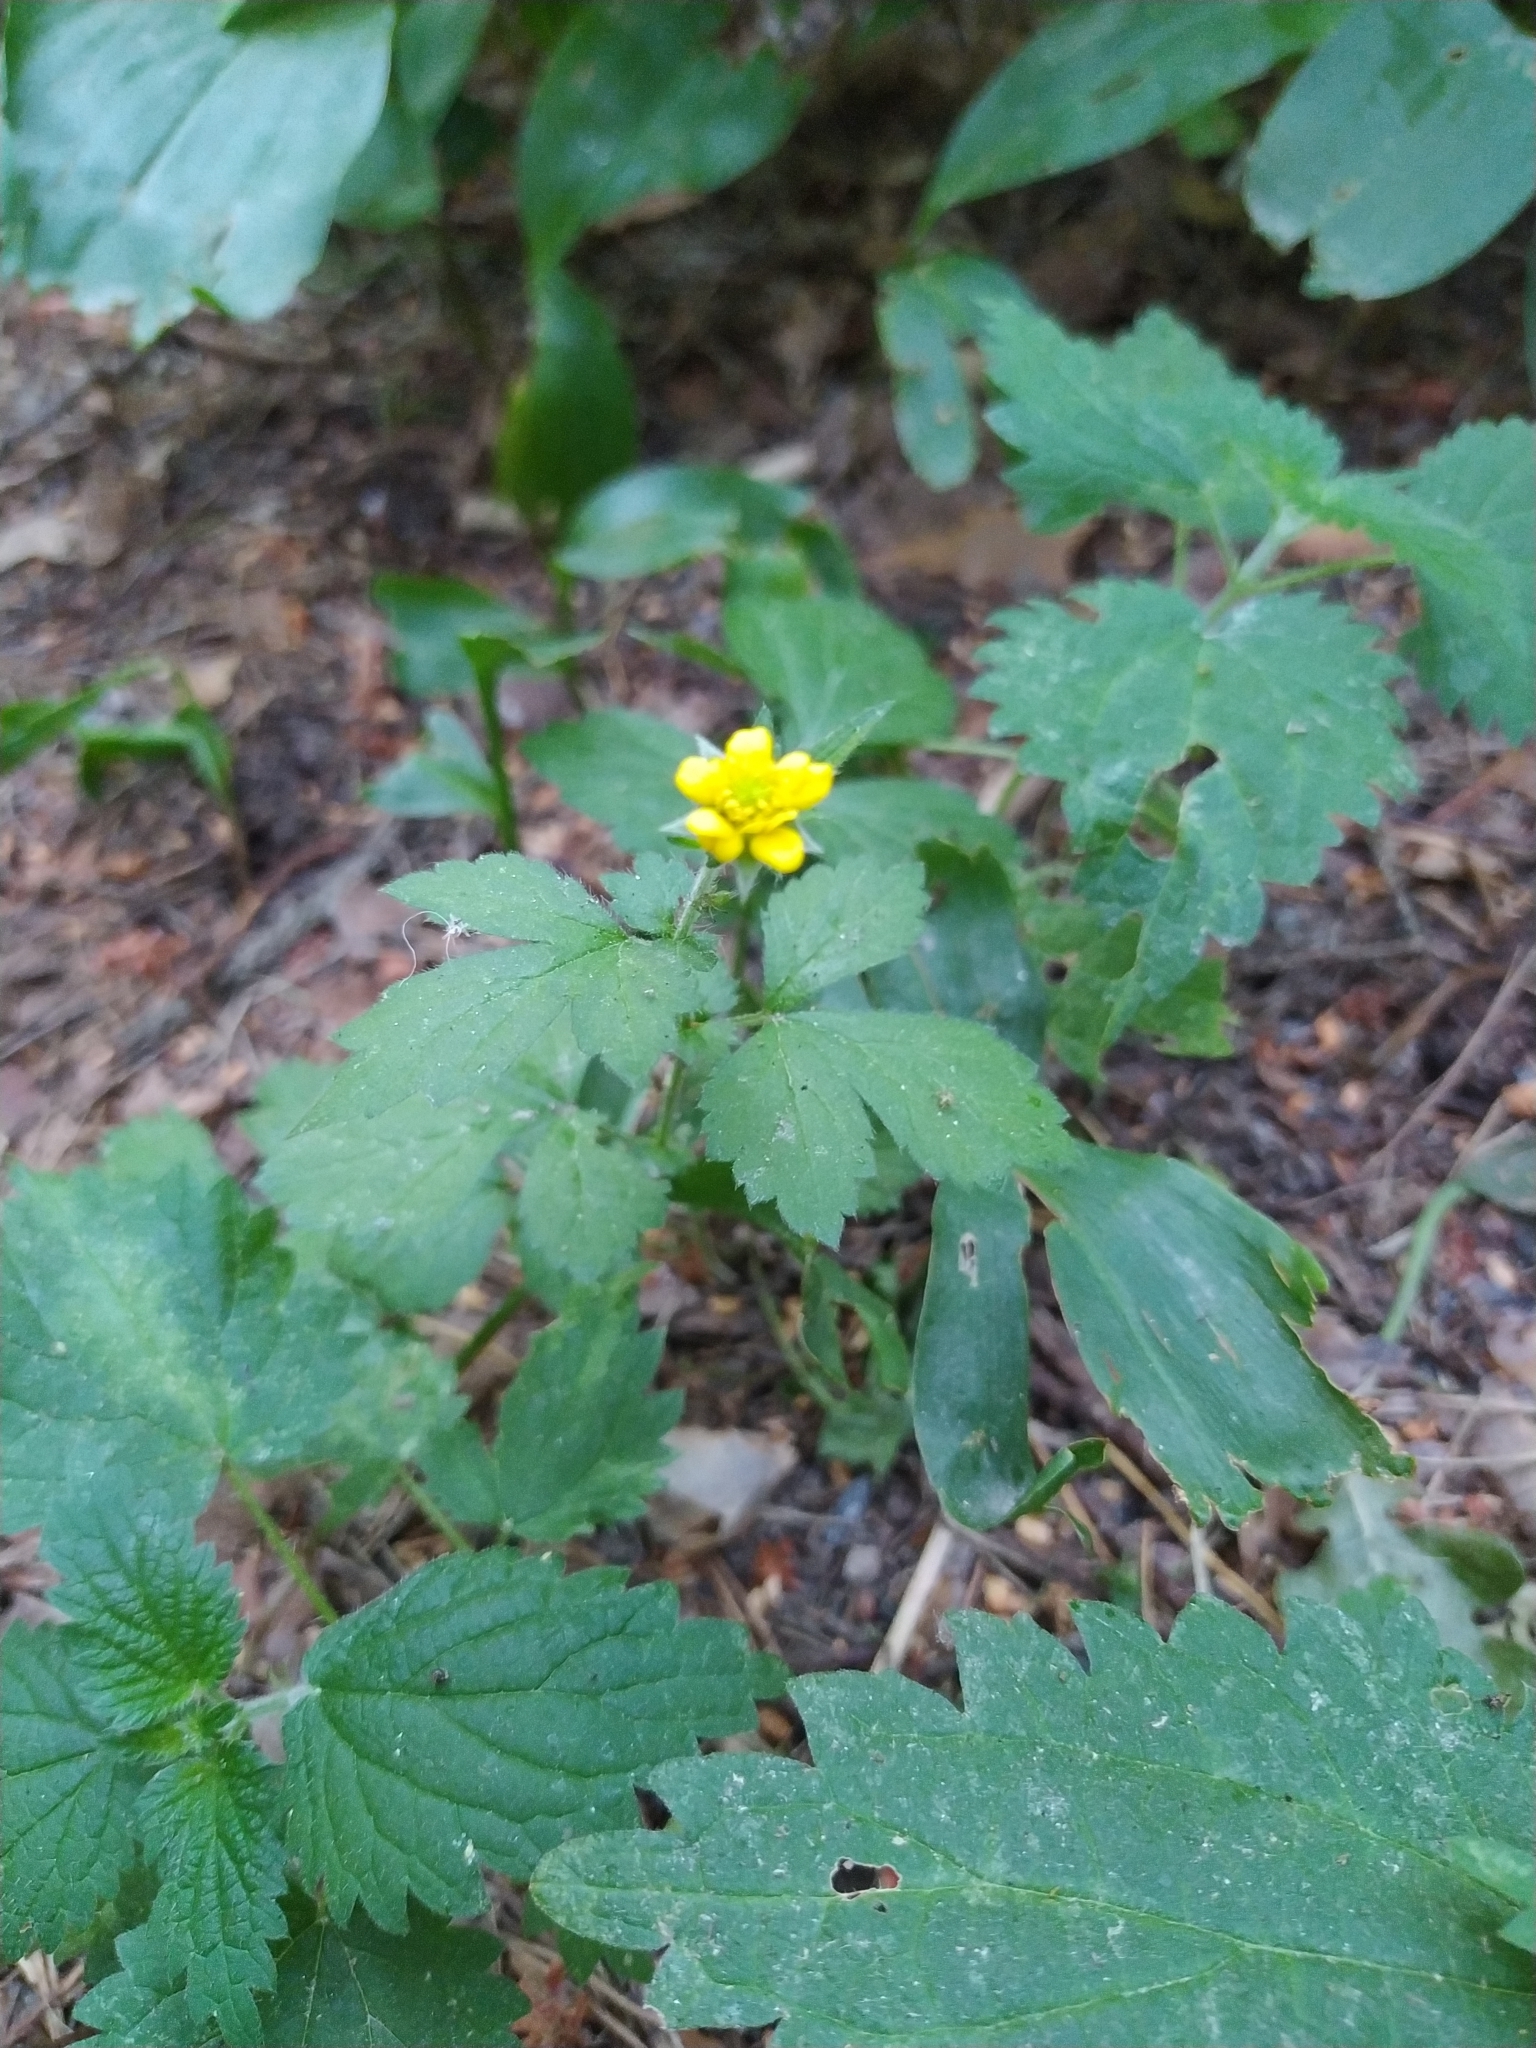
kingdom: Plantae
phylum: Tracheophyta
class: Magnoliopsida
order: Rosales
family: Rosaceae
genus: Geum
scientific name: Geum urbanum
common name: Wood avens
